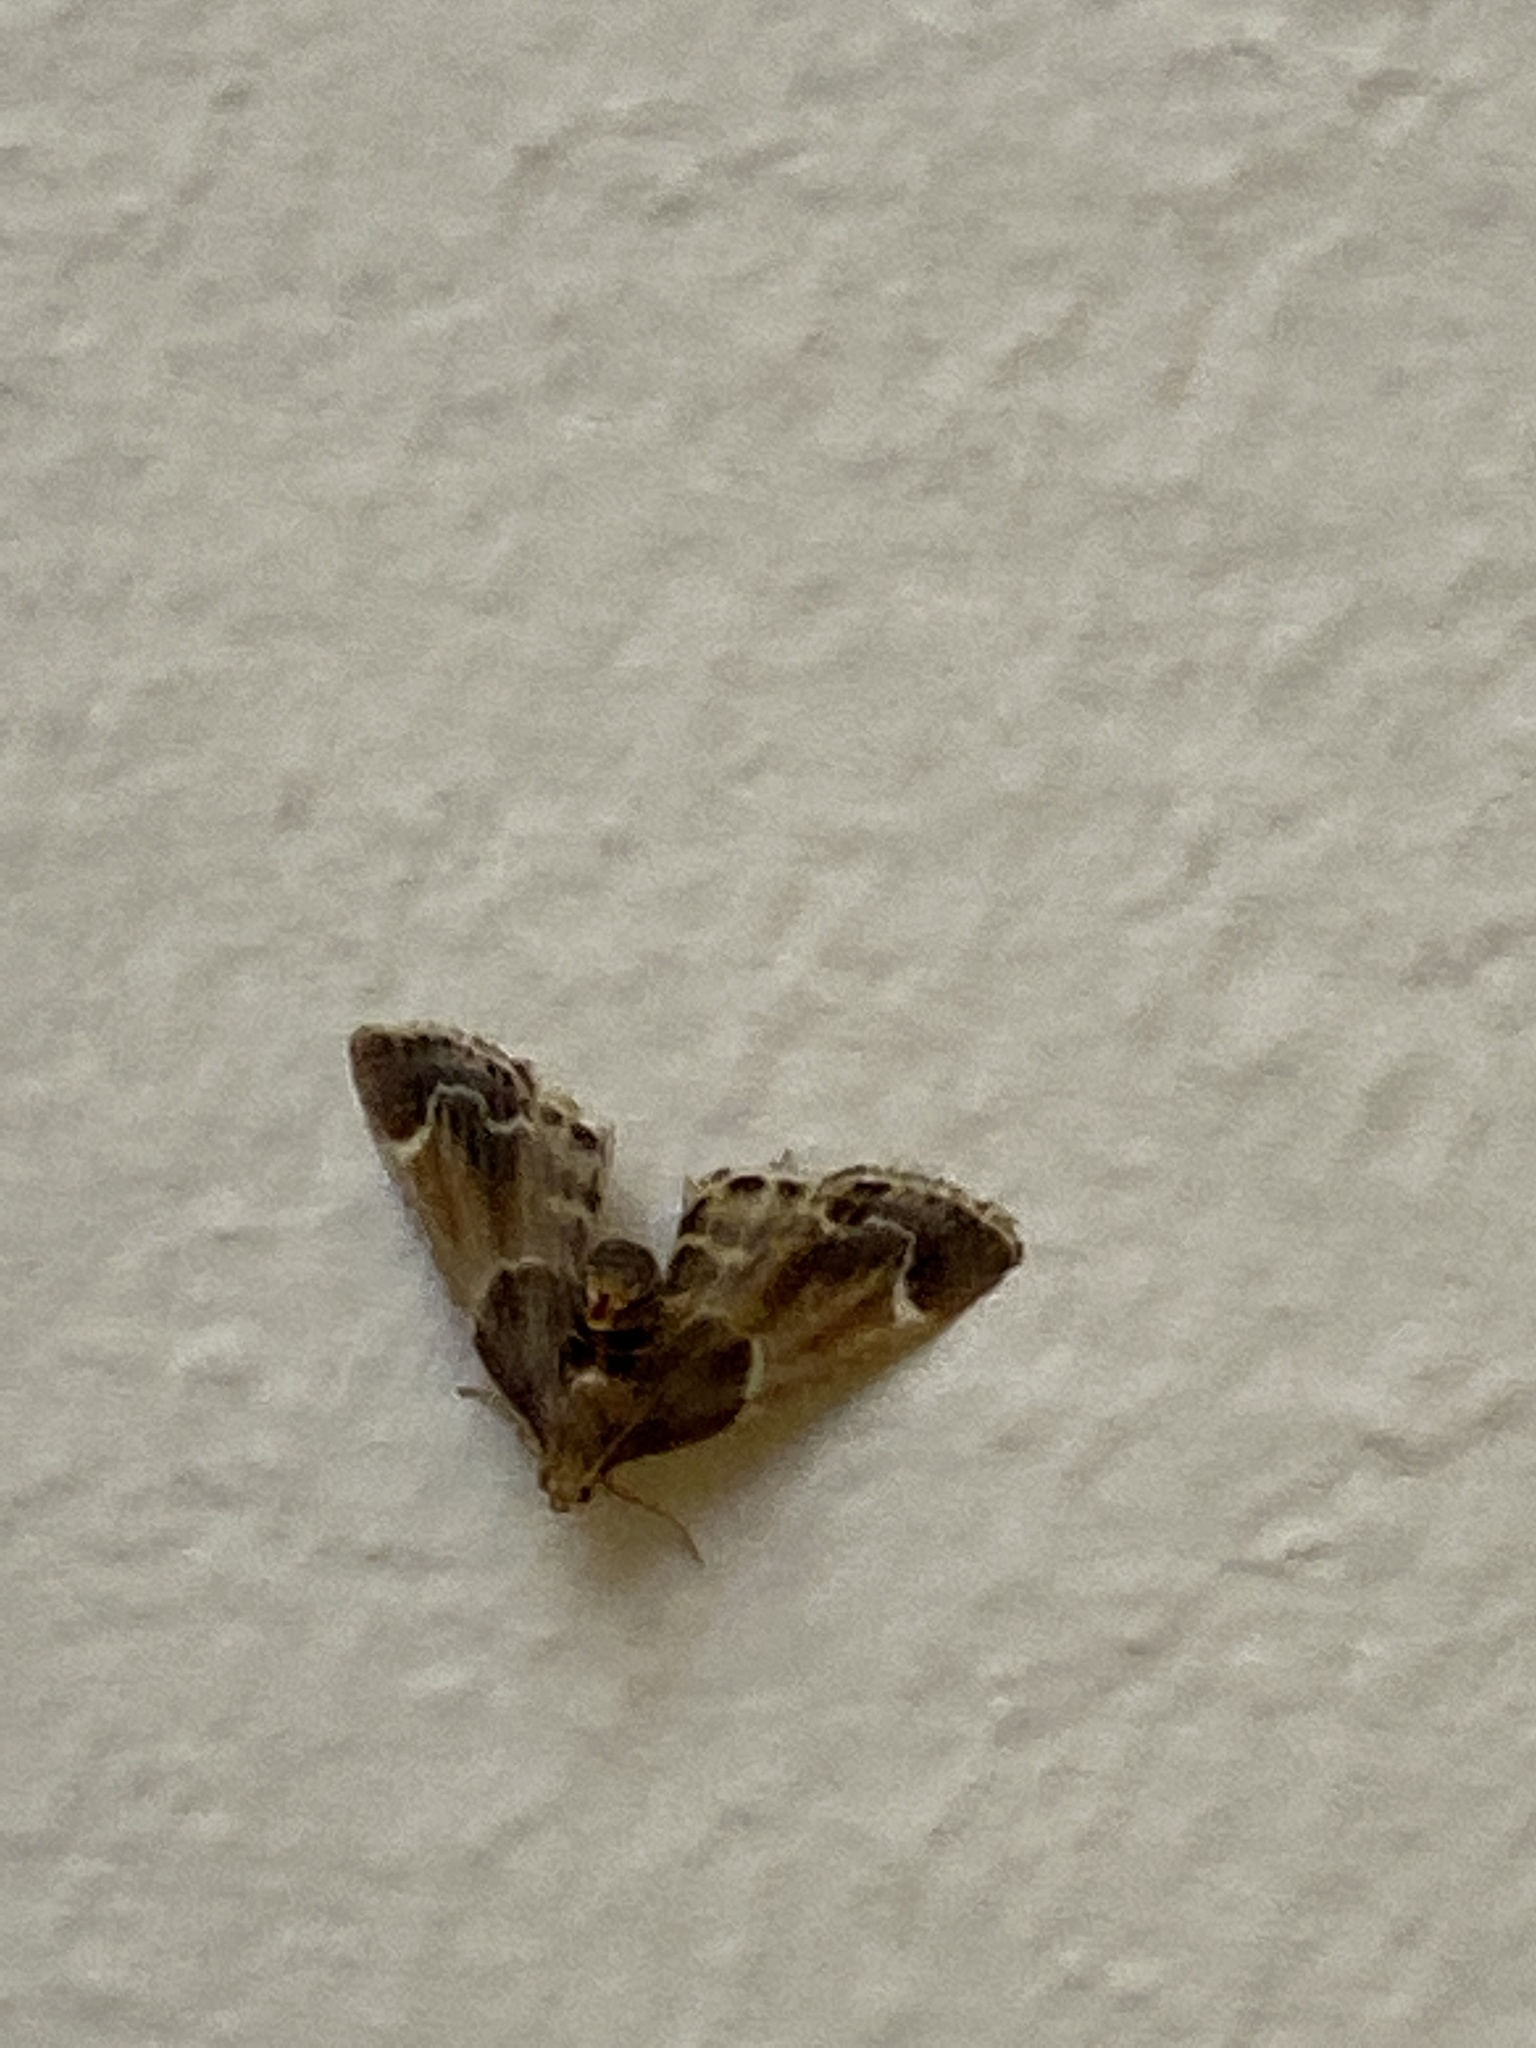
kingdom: Animalia
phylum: Arthropoda
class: Insecta
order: Lepidoptera
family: Pyralidae
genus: Pyralis
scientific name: Pyralis farinalis
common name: Meal moth
